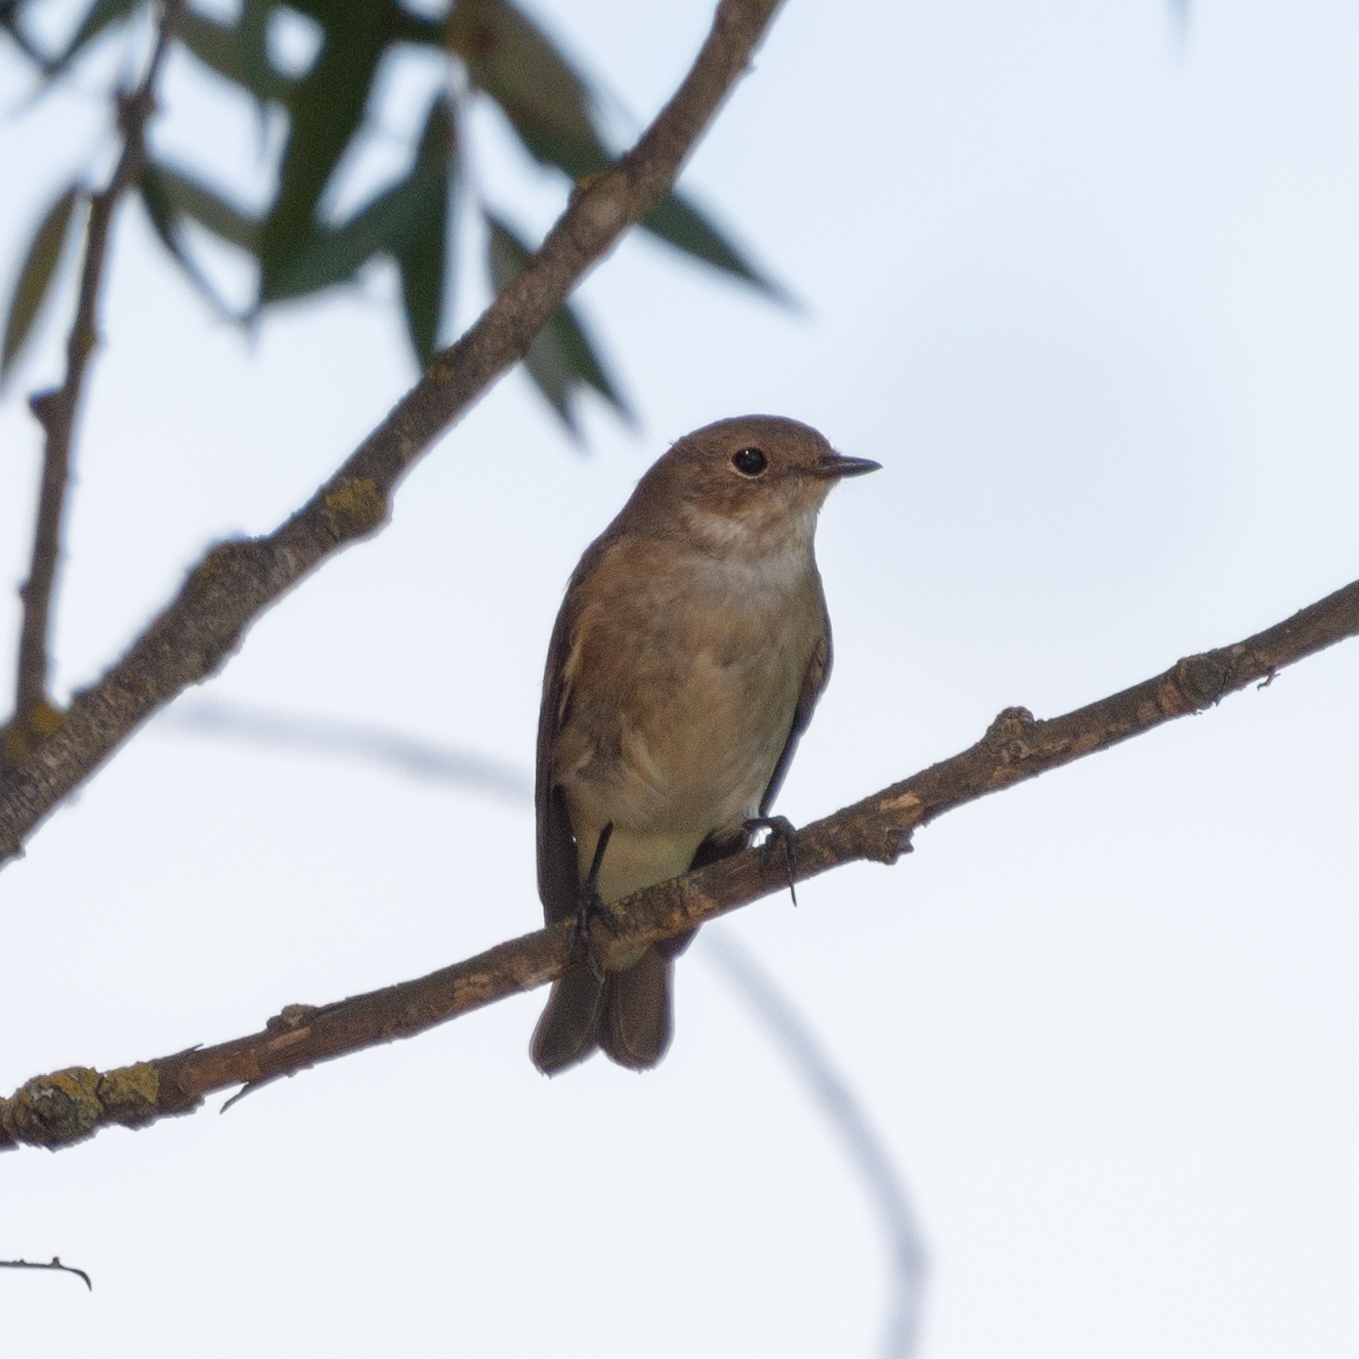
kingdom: Animalia
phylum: Chordata
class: Aves
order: Passeriformes
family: Muscicapidae
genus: Ficedula
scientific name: Ficedula hypoleuca
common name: European pied flycatcher
